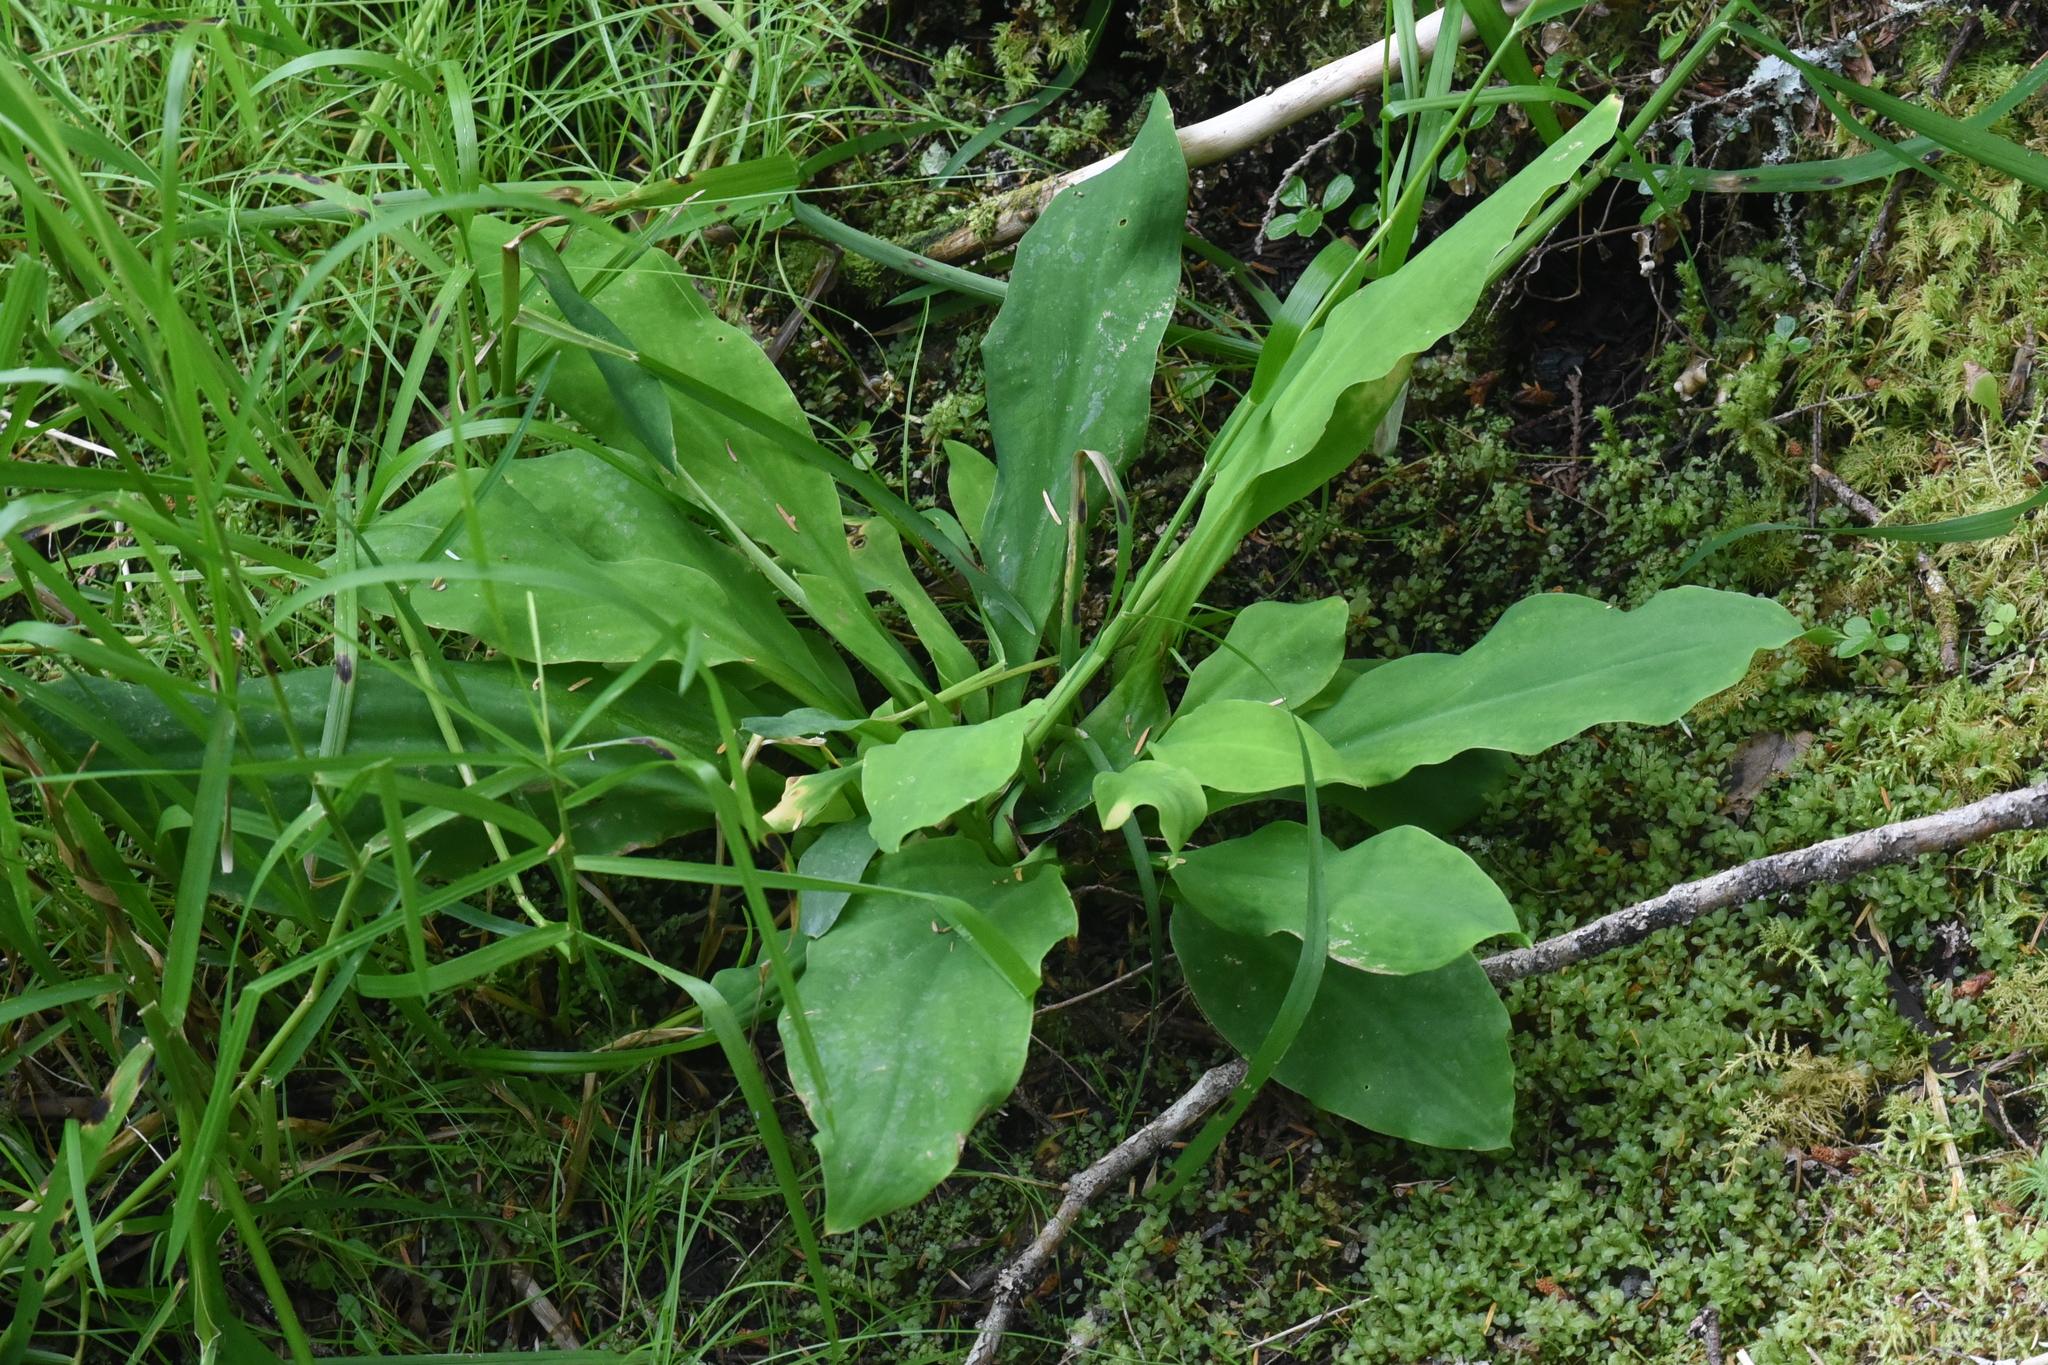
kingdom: Plantae
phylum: Tracheophyta
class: Liliopsida
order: Alismatales
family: Araceae
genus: Lysichiton
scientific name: Lysichiton americanus
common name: American skunk cabbage
